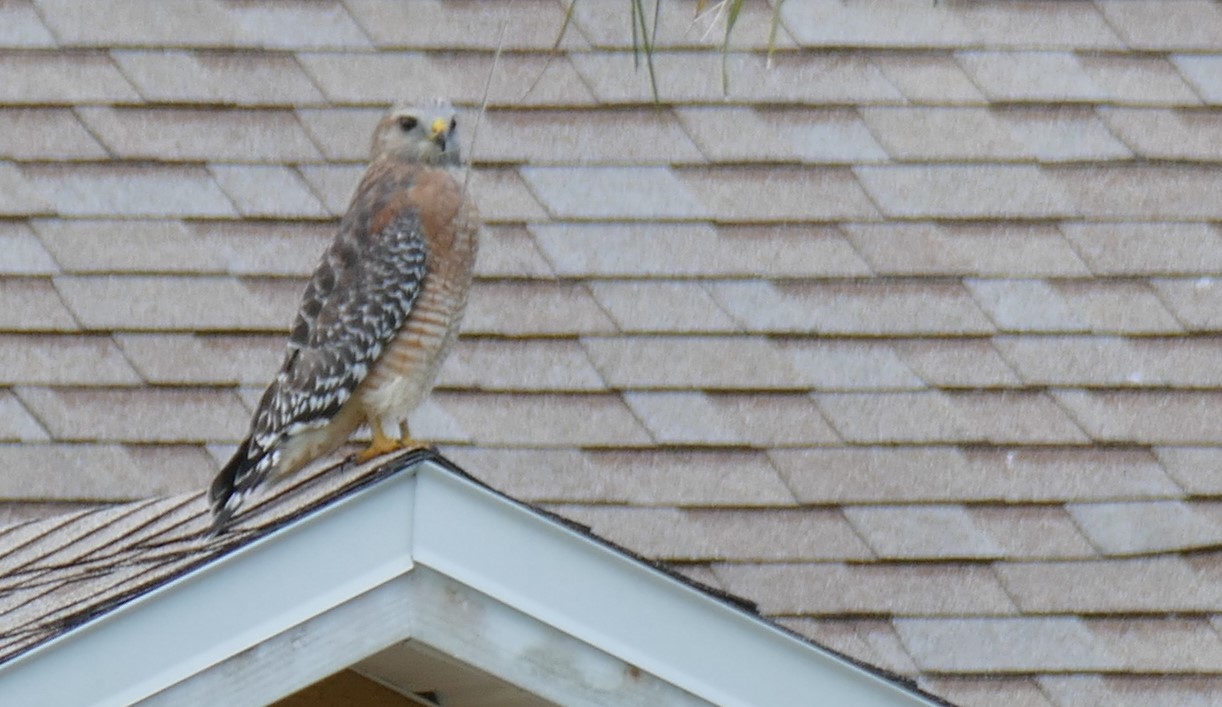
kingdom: Animalia
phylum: Chordata
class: Aves
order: Accipitriformes
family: Accipitridae
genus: Buteo
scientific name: Buteo lineatus
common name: Red-shouldered hawk
